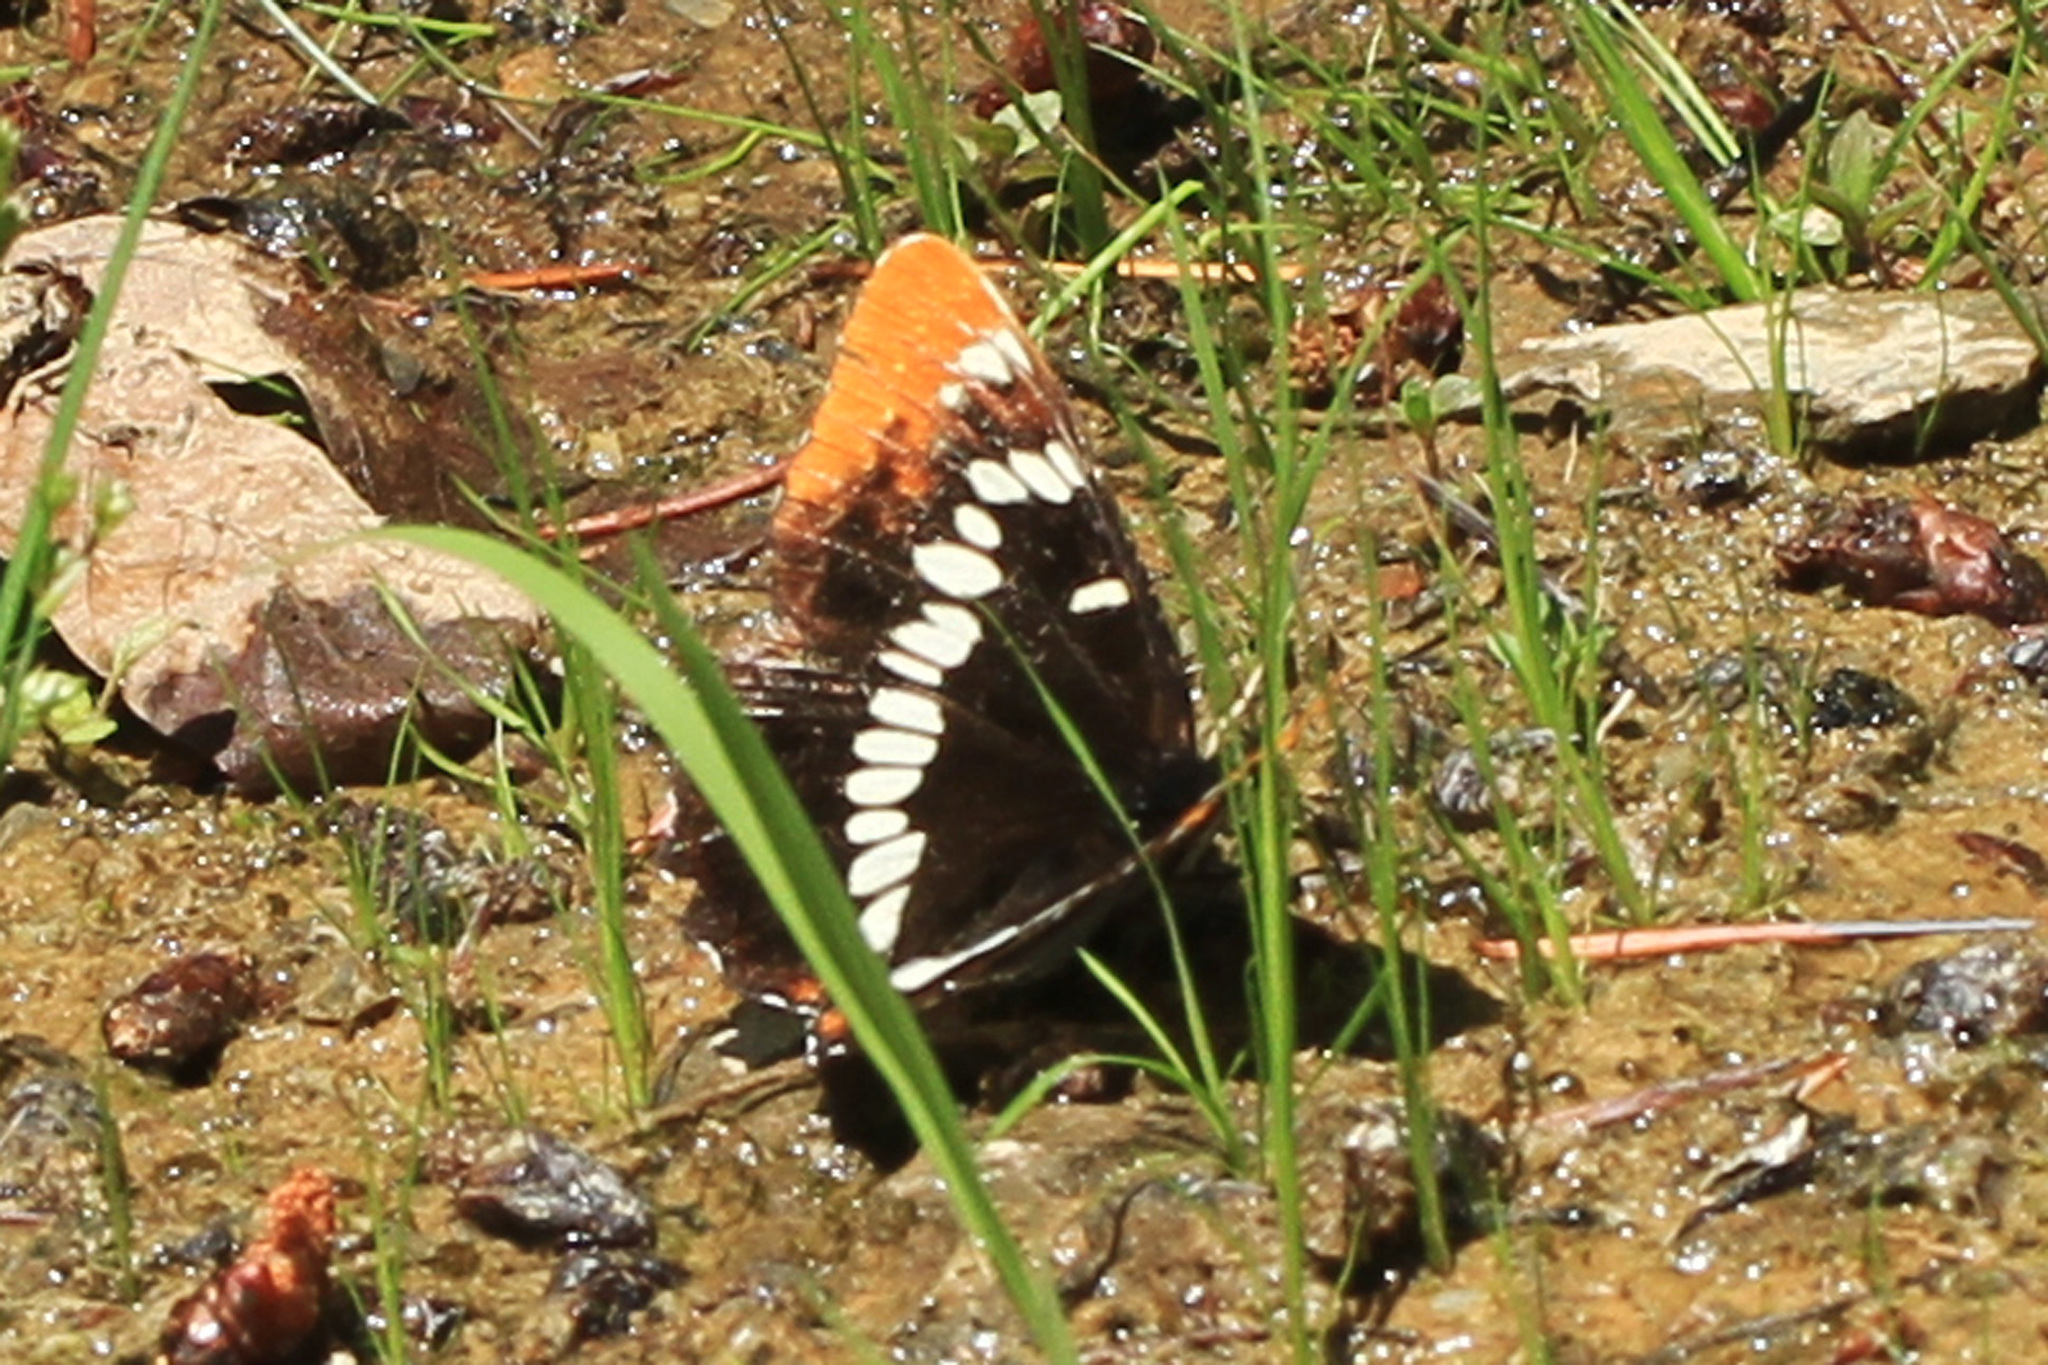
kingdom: Animalia
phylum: Arthropoda
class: Insecta
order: Lepidoptera
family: Nymphalidae
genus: Limenitis
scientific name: Limenitis lorquini
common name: Lorquin's admiral
